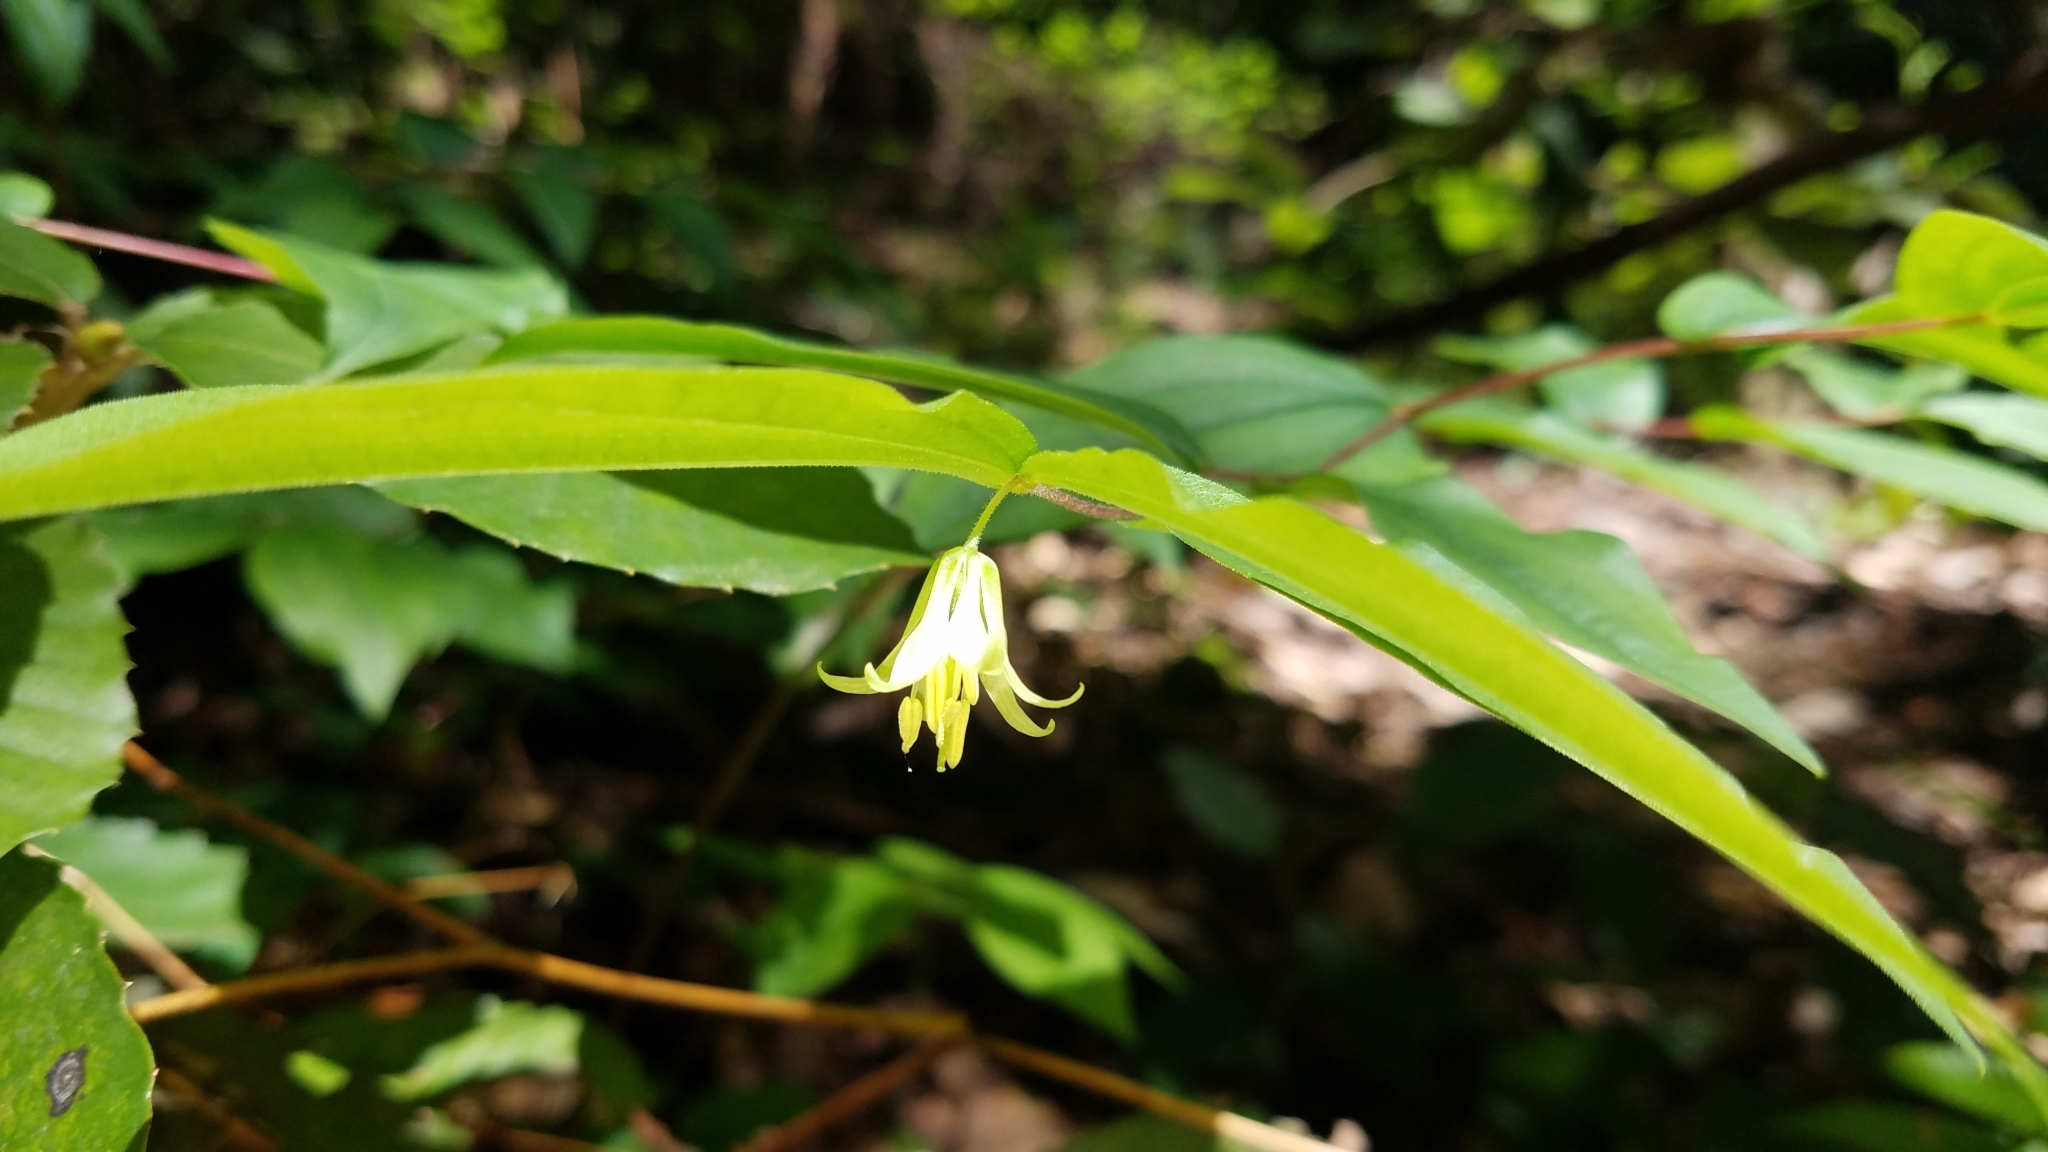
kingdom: Plantae
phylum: Tracheophyta
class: Liliopsida
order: Liliales
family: Liliaceae
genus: Prosartes
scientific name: Prosartes hookeri
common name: Fairy-bells
